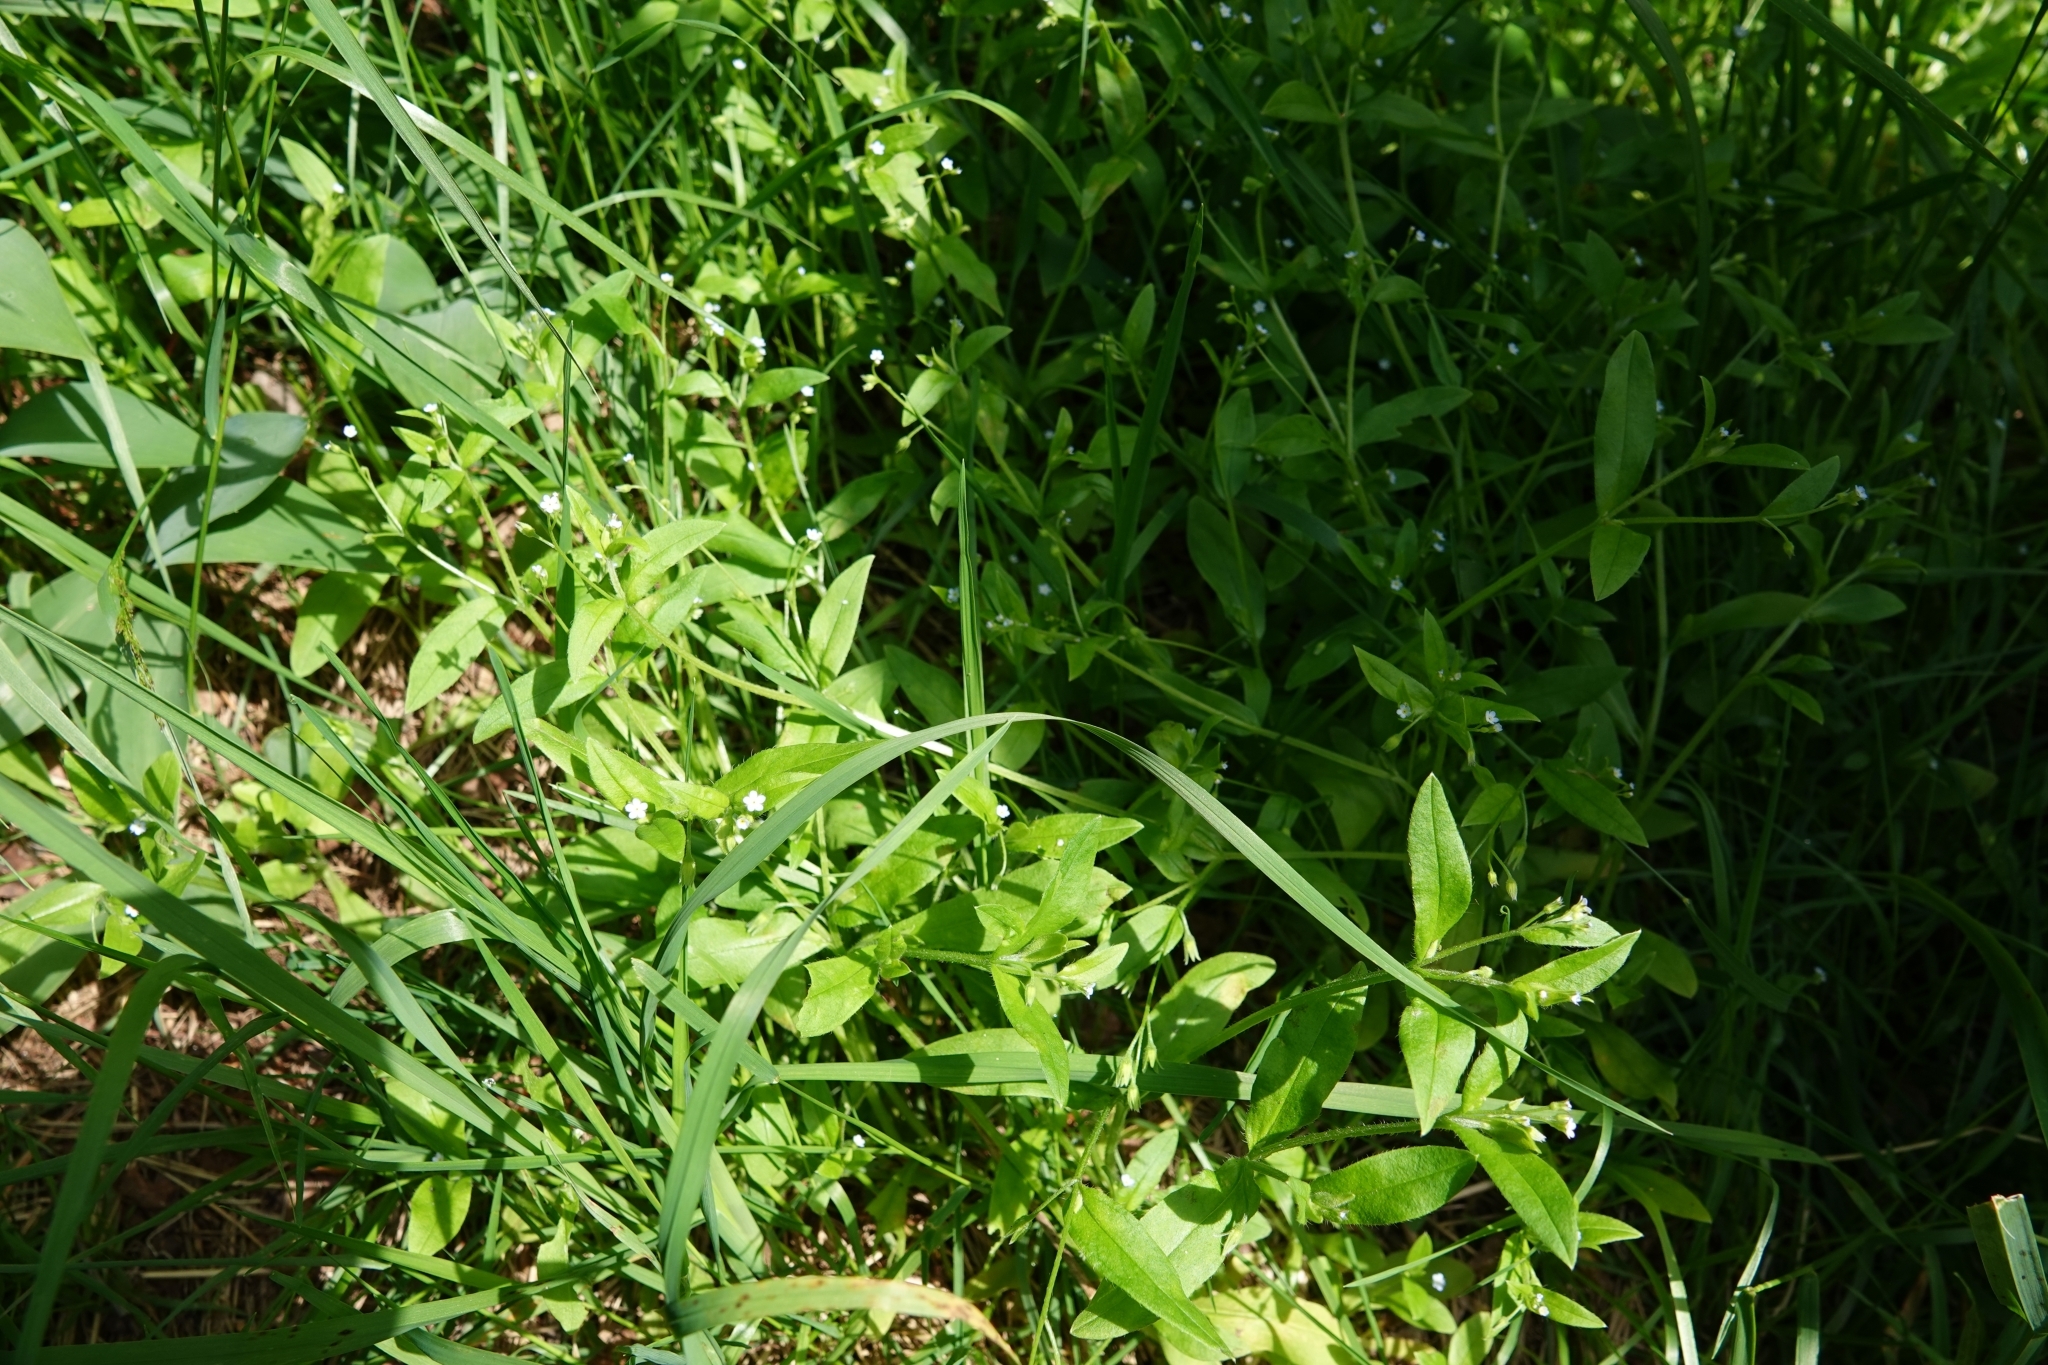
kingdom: Plantae
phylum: Tracheophyta
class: Magnoliopsida
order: Boraginales
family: Boraginaceae
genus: Myosotis
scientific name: Myosotis sparsiflora
